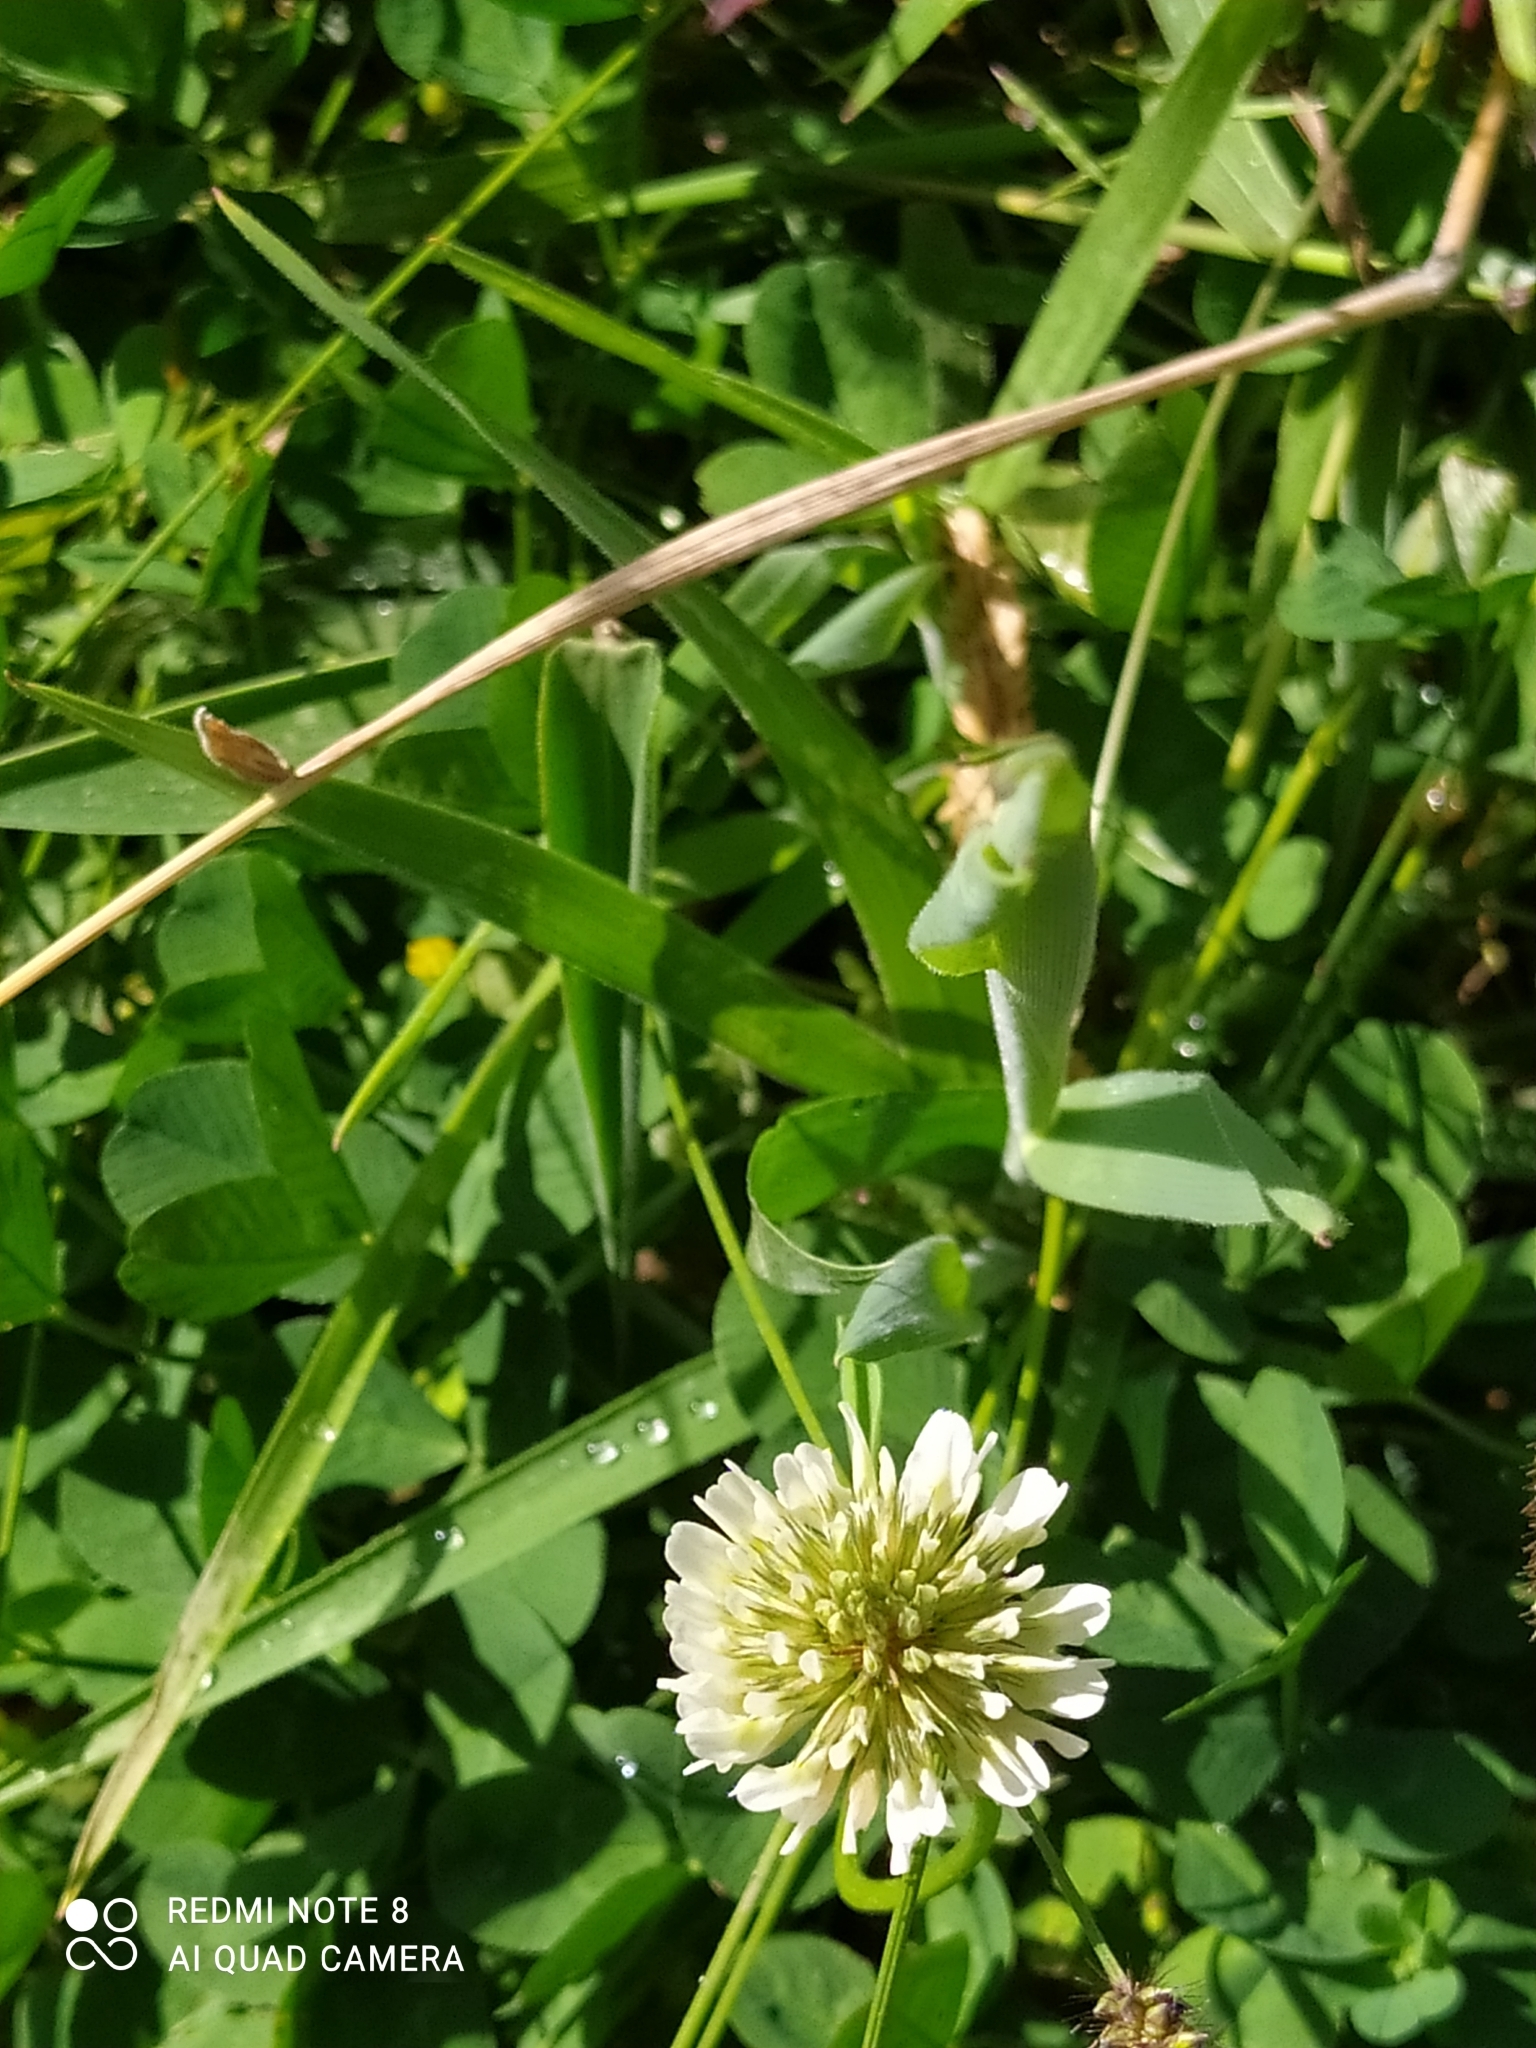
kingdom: Plantae
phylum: Tracheophyta
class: Magnoliopsida
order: Fabales
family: Fabaceae
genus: Trifolium
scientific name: Trifolium repens
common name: White clover
